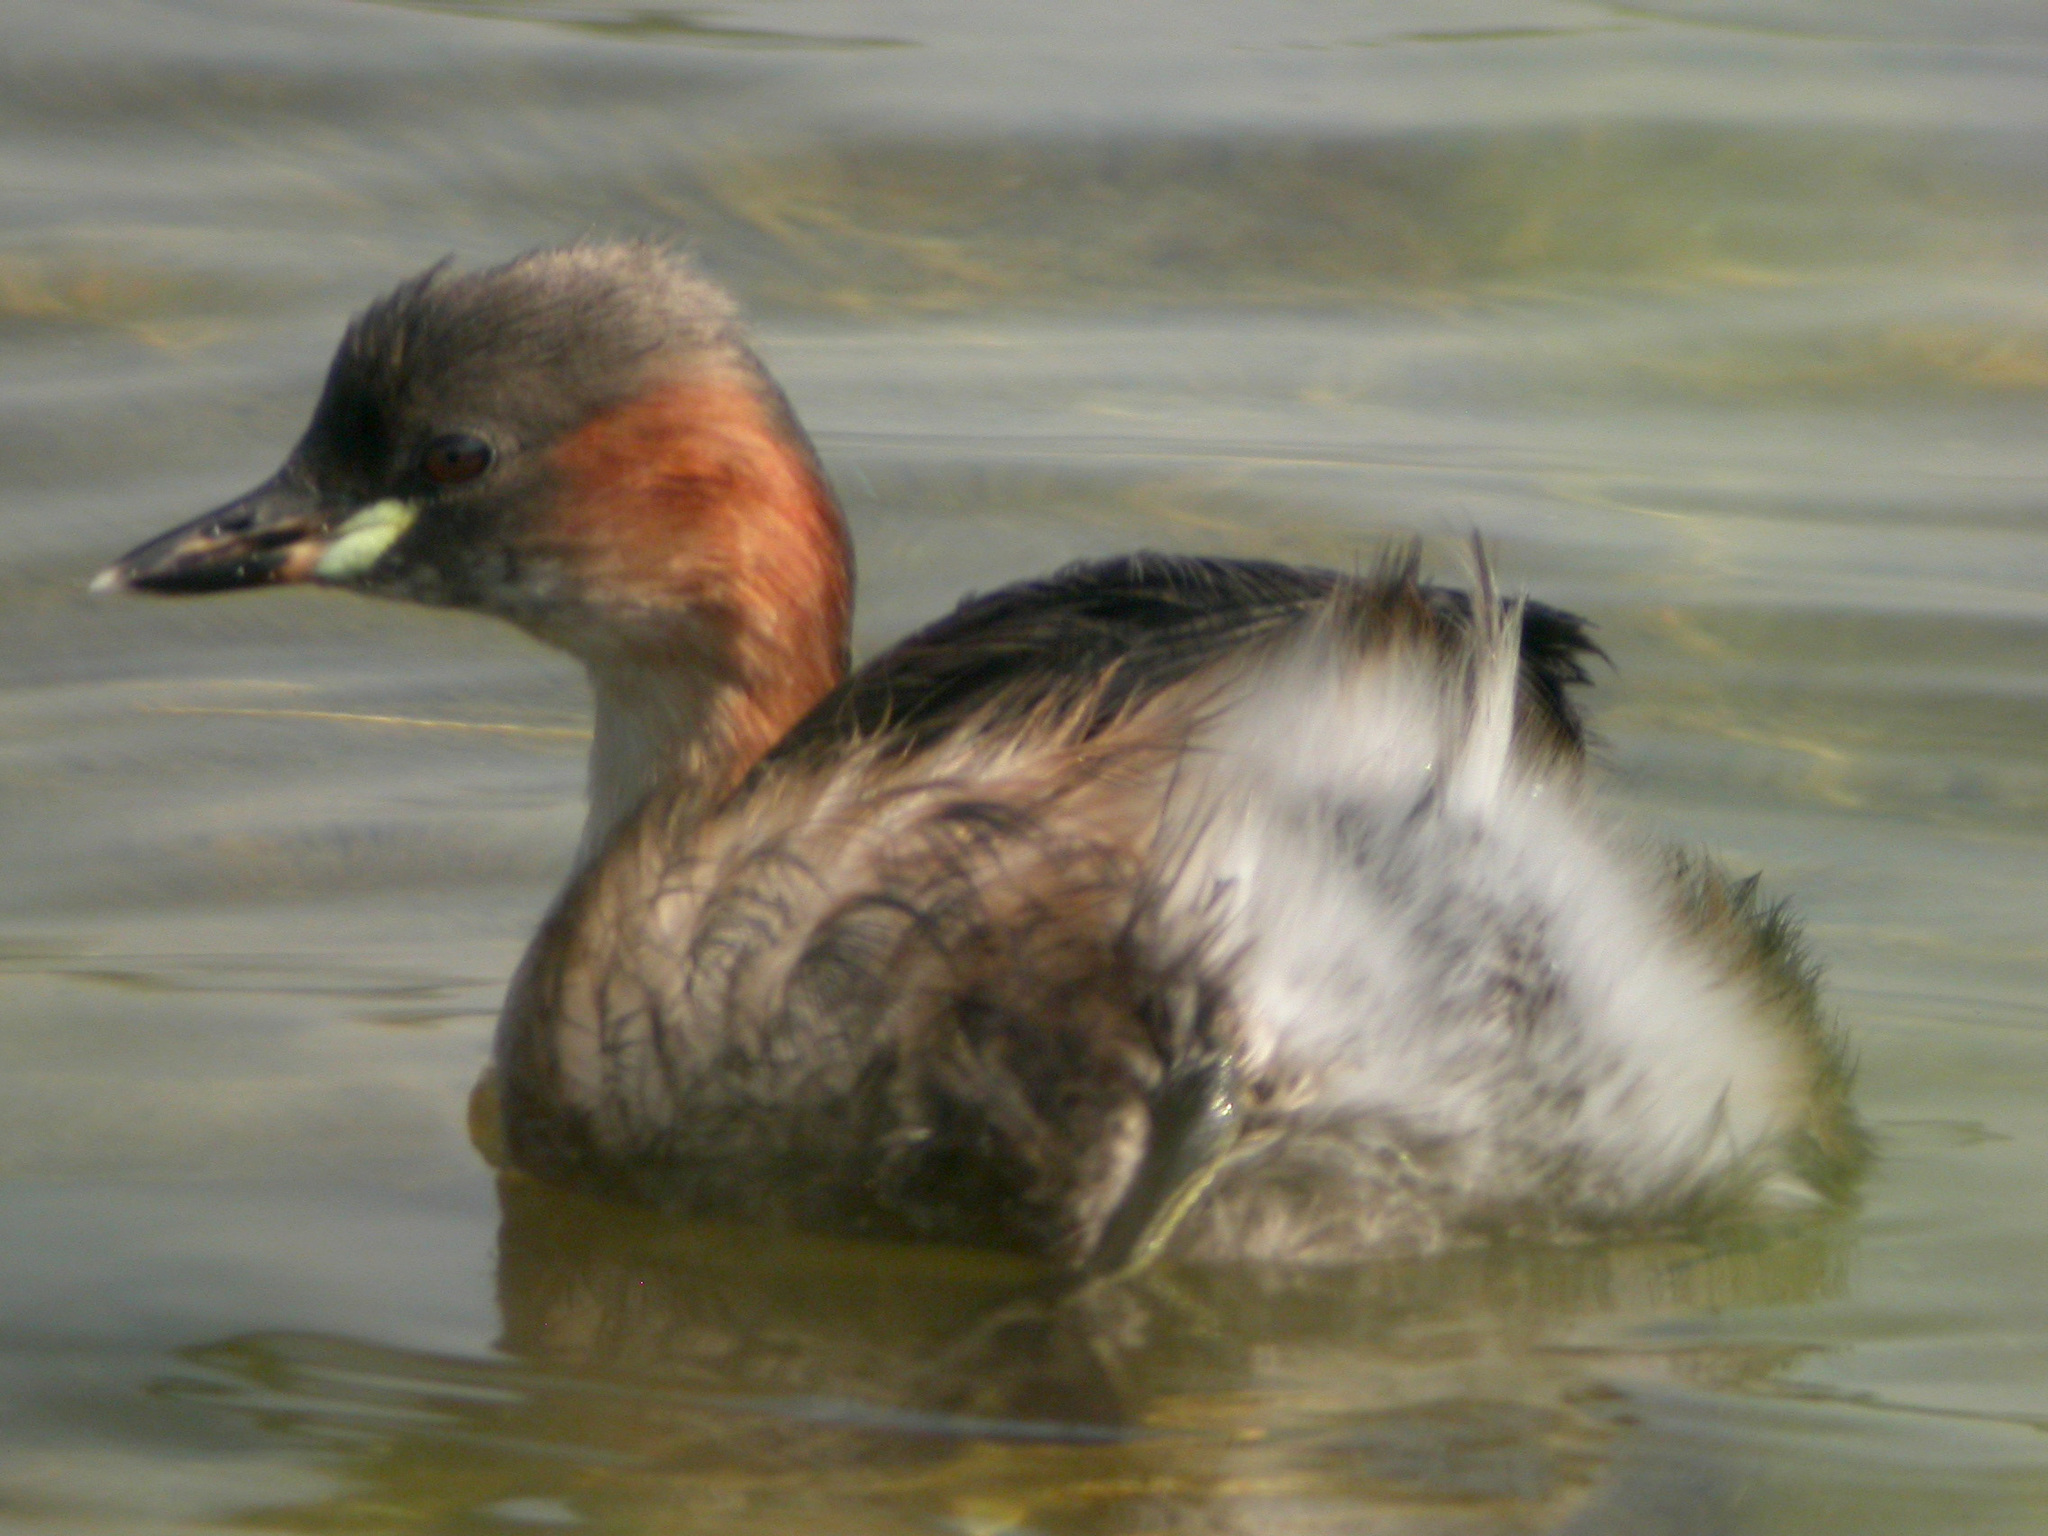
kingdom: Animalia
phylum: Chordata
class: Aves
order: Podicipediformes
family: Podicipedidae
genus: Tachybaptus
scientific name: Tachybaptus ruficollis
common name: Little grebe
